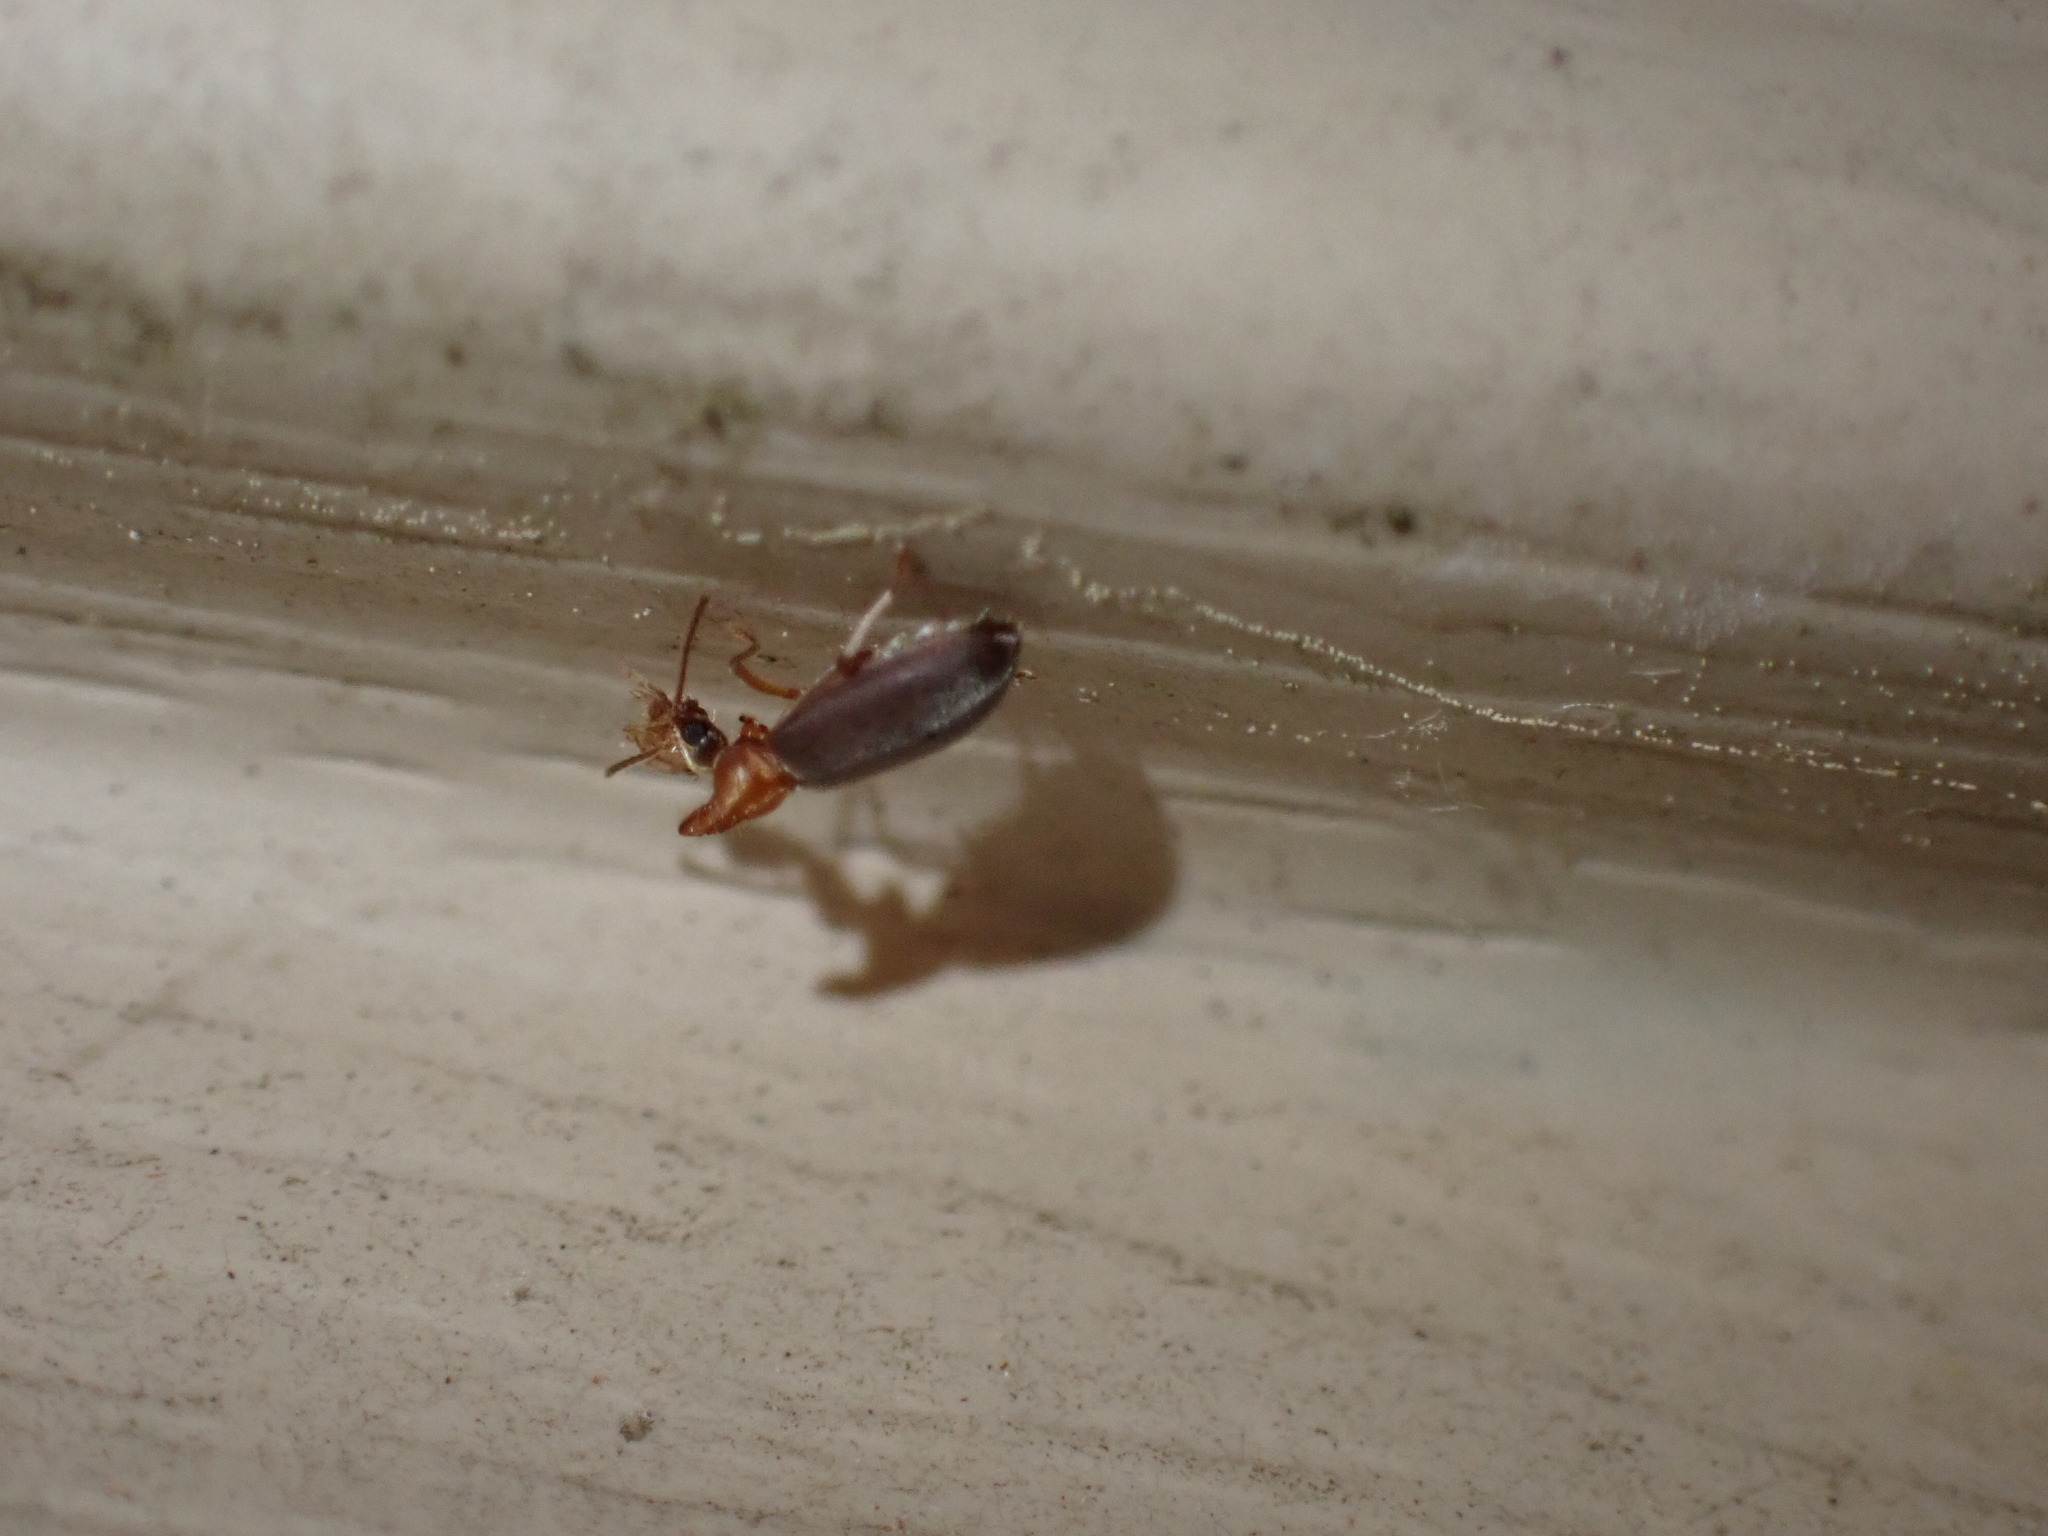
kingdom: Animalia
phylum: Arthropoda
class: Insecta
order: Coleoptera
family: Anthicidae
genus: Notoxus
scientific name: Notoxus murinipennis
